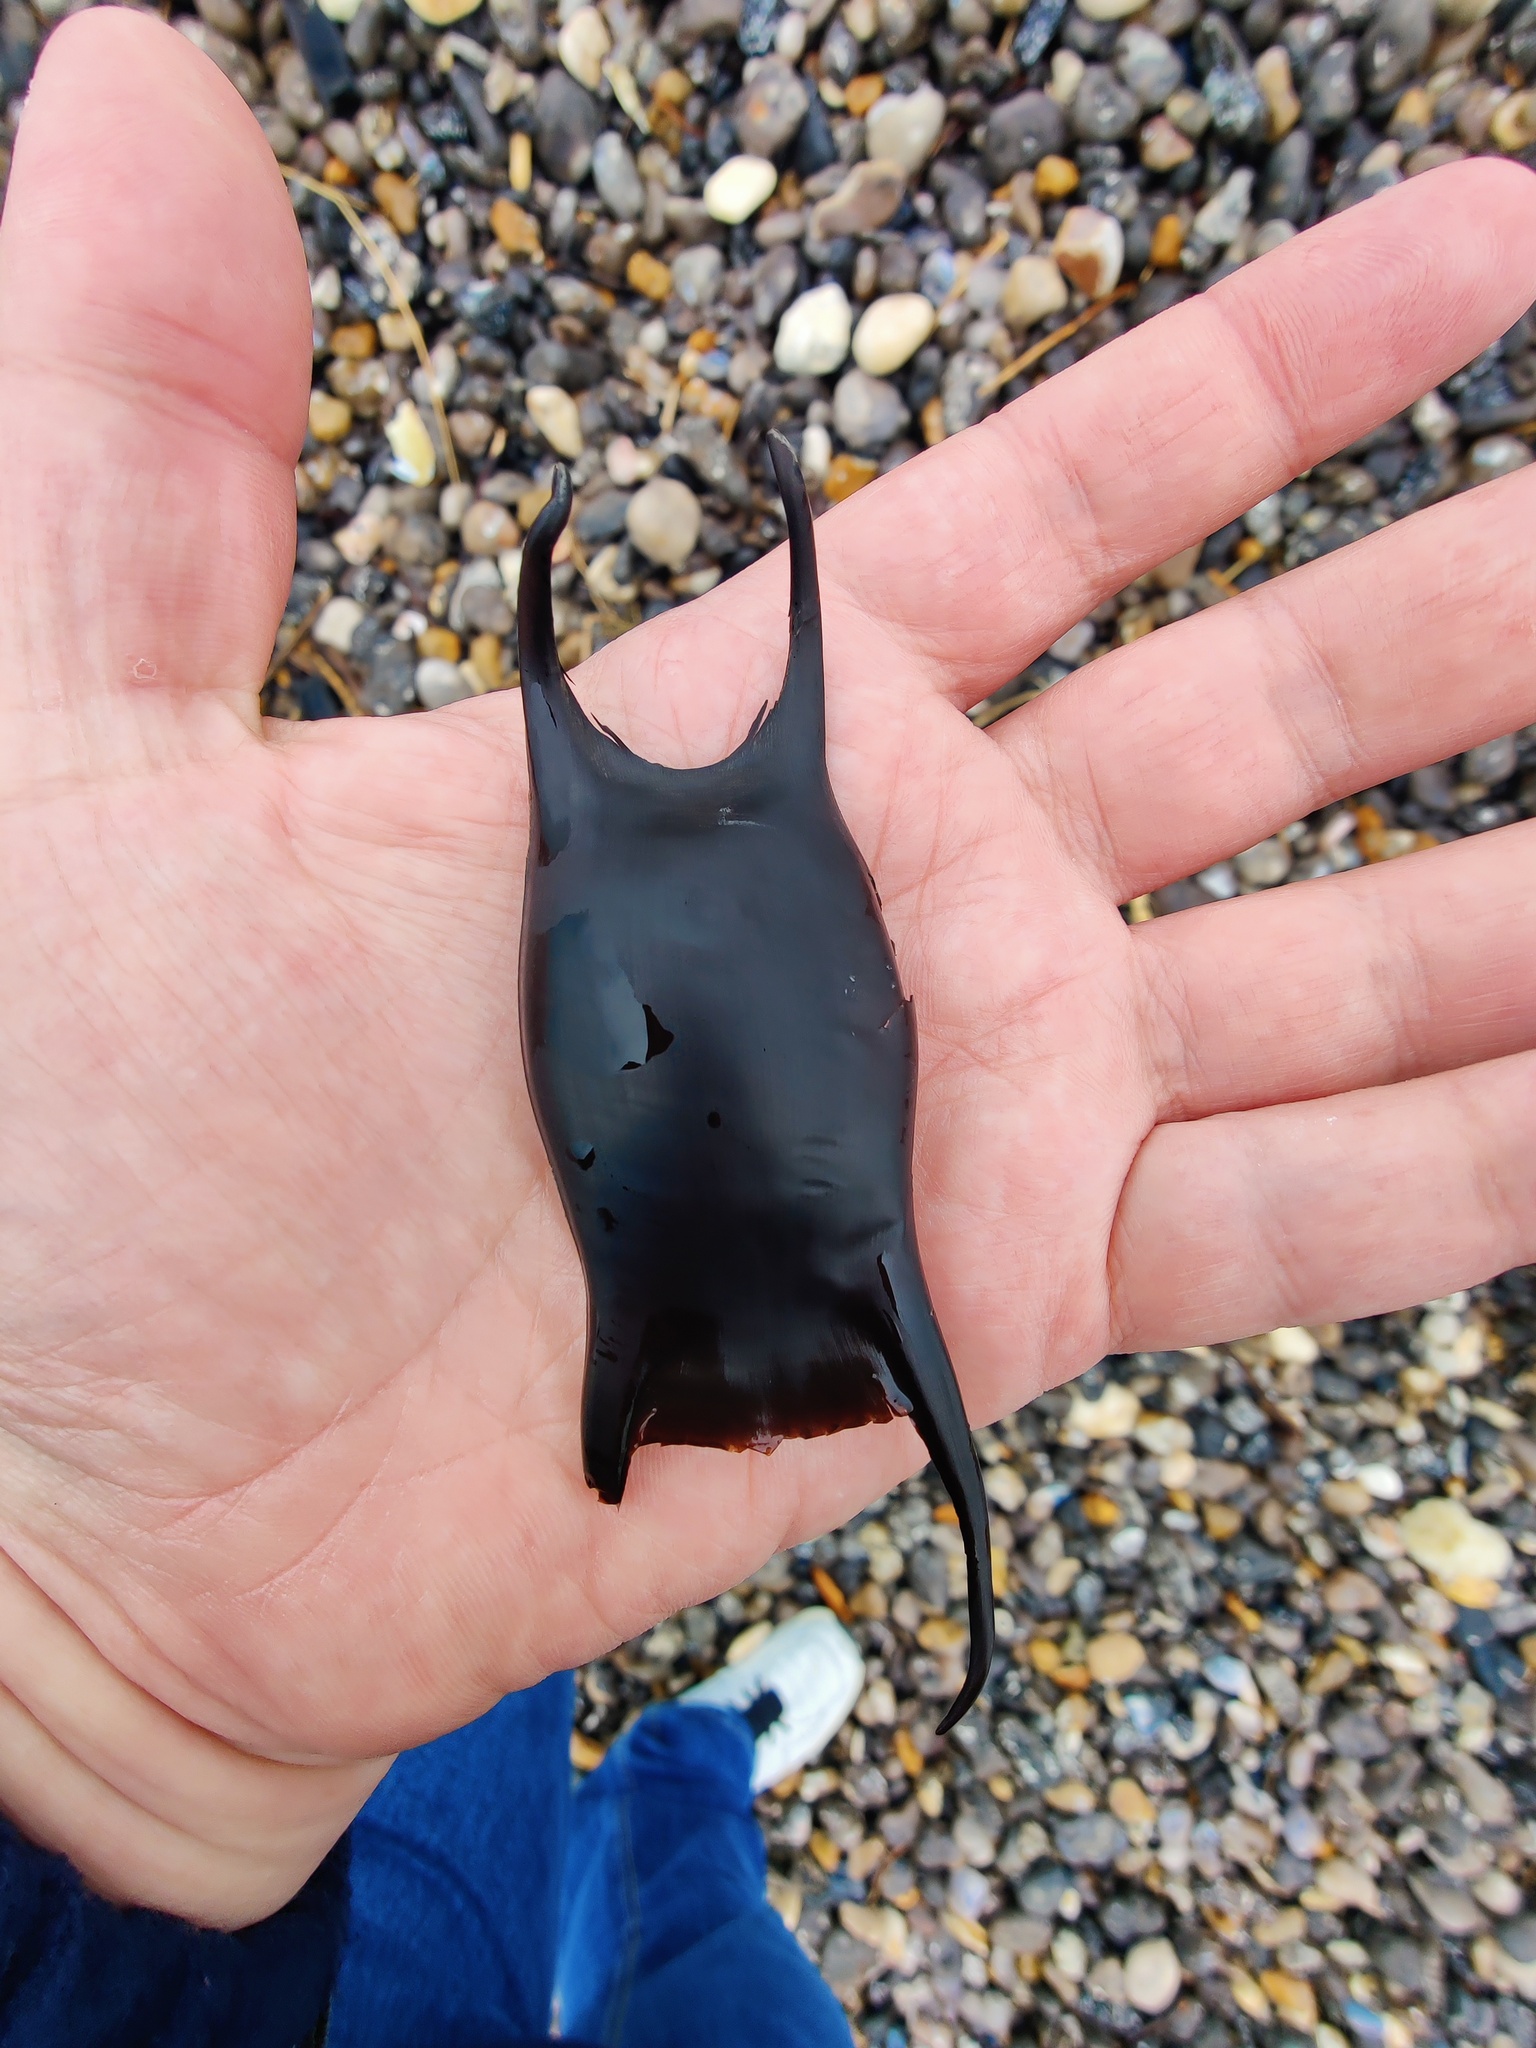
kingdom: Animalia
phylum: Chordata
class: Elasmobranchii
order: Rajiformes
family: Rajidae
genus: Raja
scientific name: Raja montagui
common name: Spotted ray
